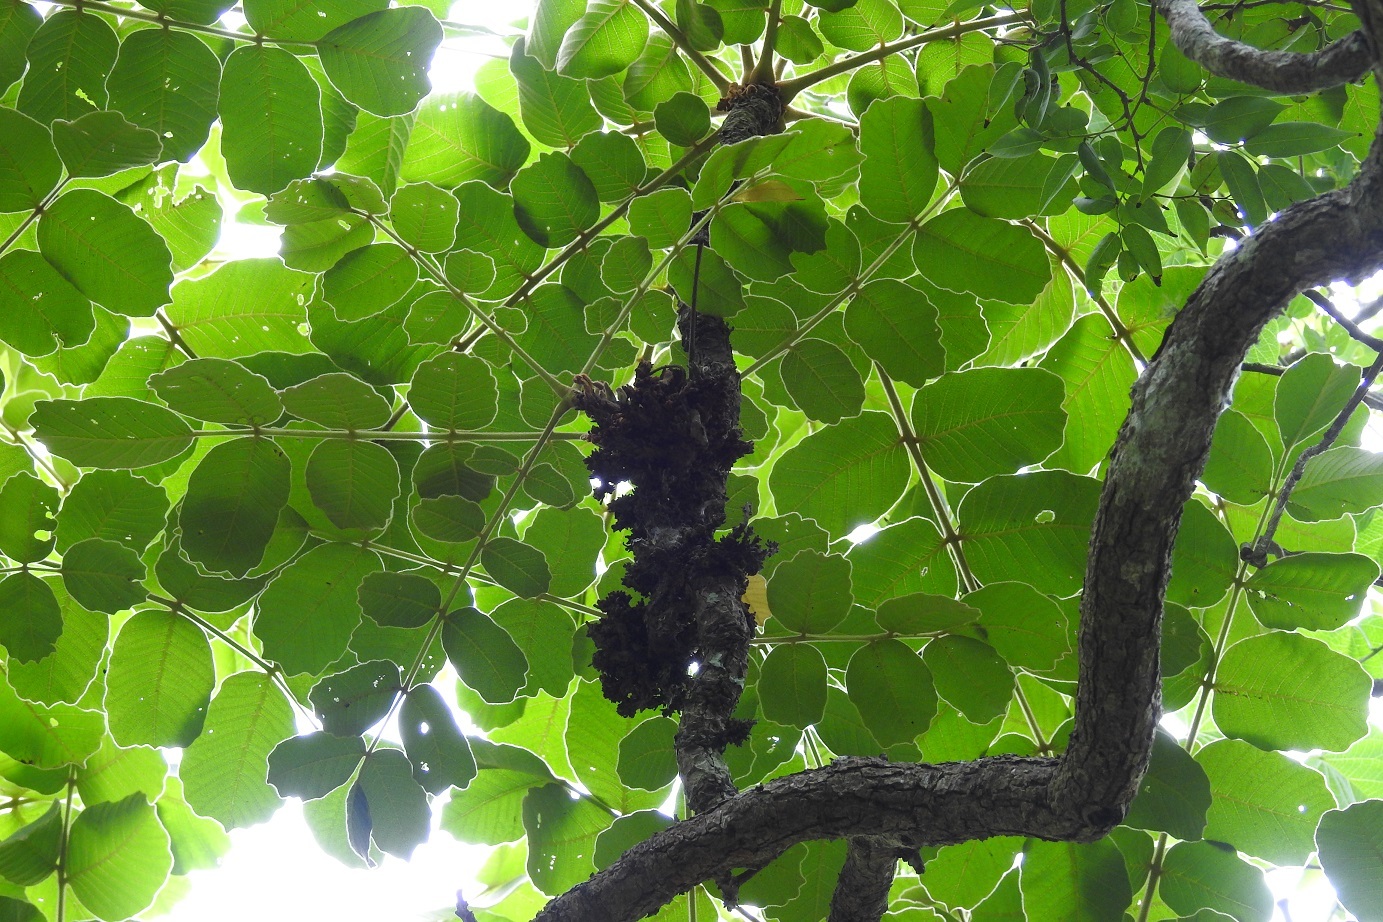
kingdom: Plantae
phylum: Tracheophyta
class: Magnoliopsida
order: Sapindales
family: Anacardiaceae
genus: Comocladia
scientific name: Comocladia guatemalensis
